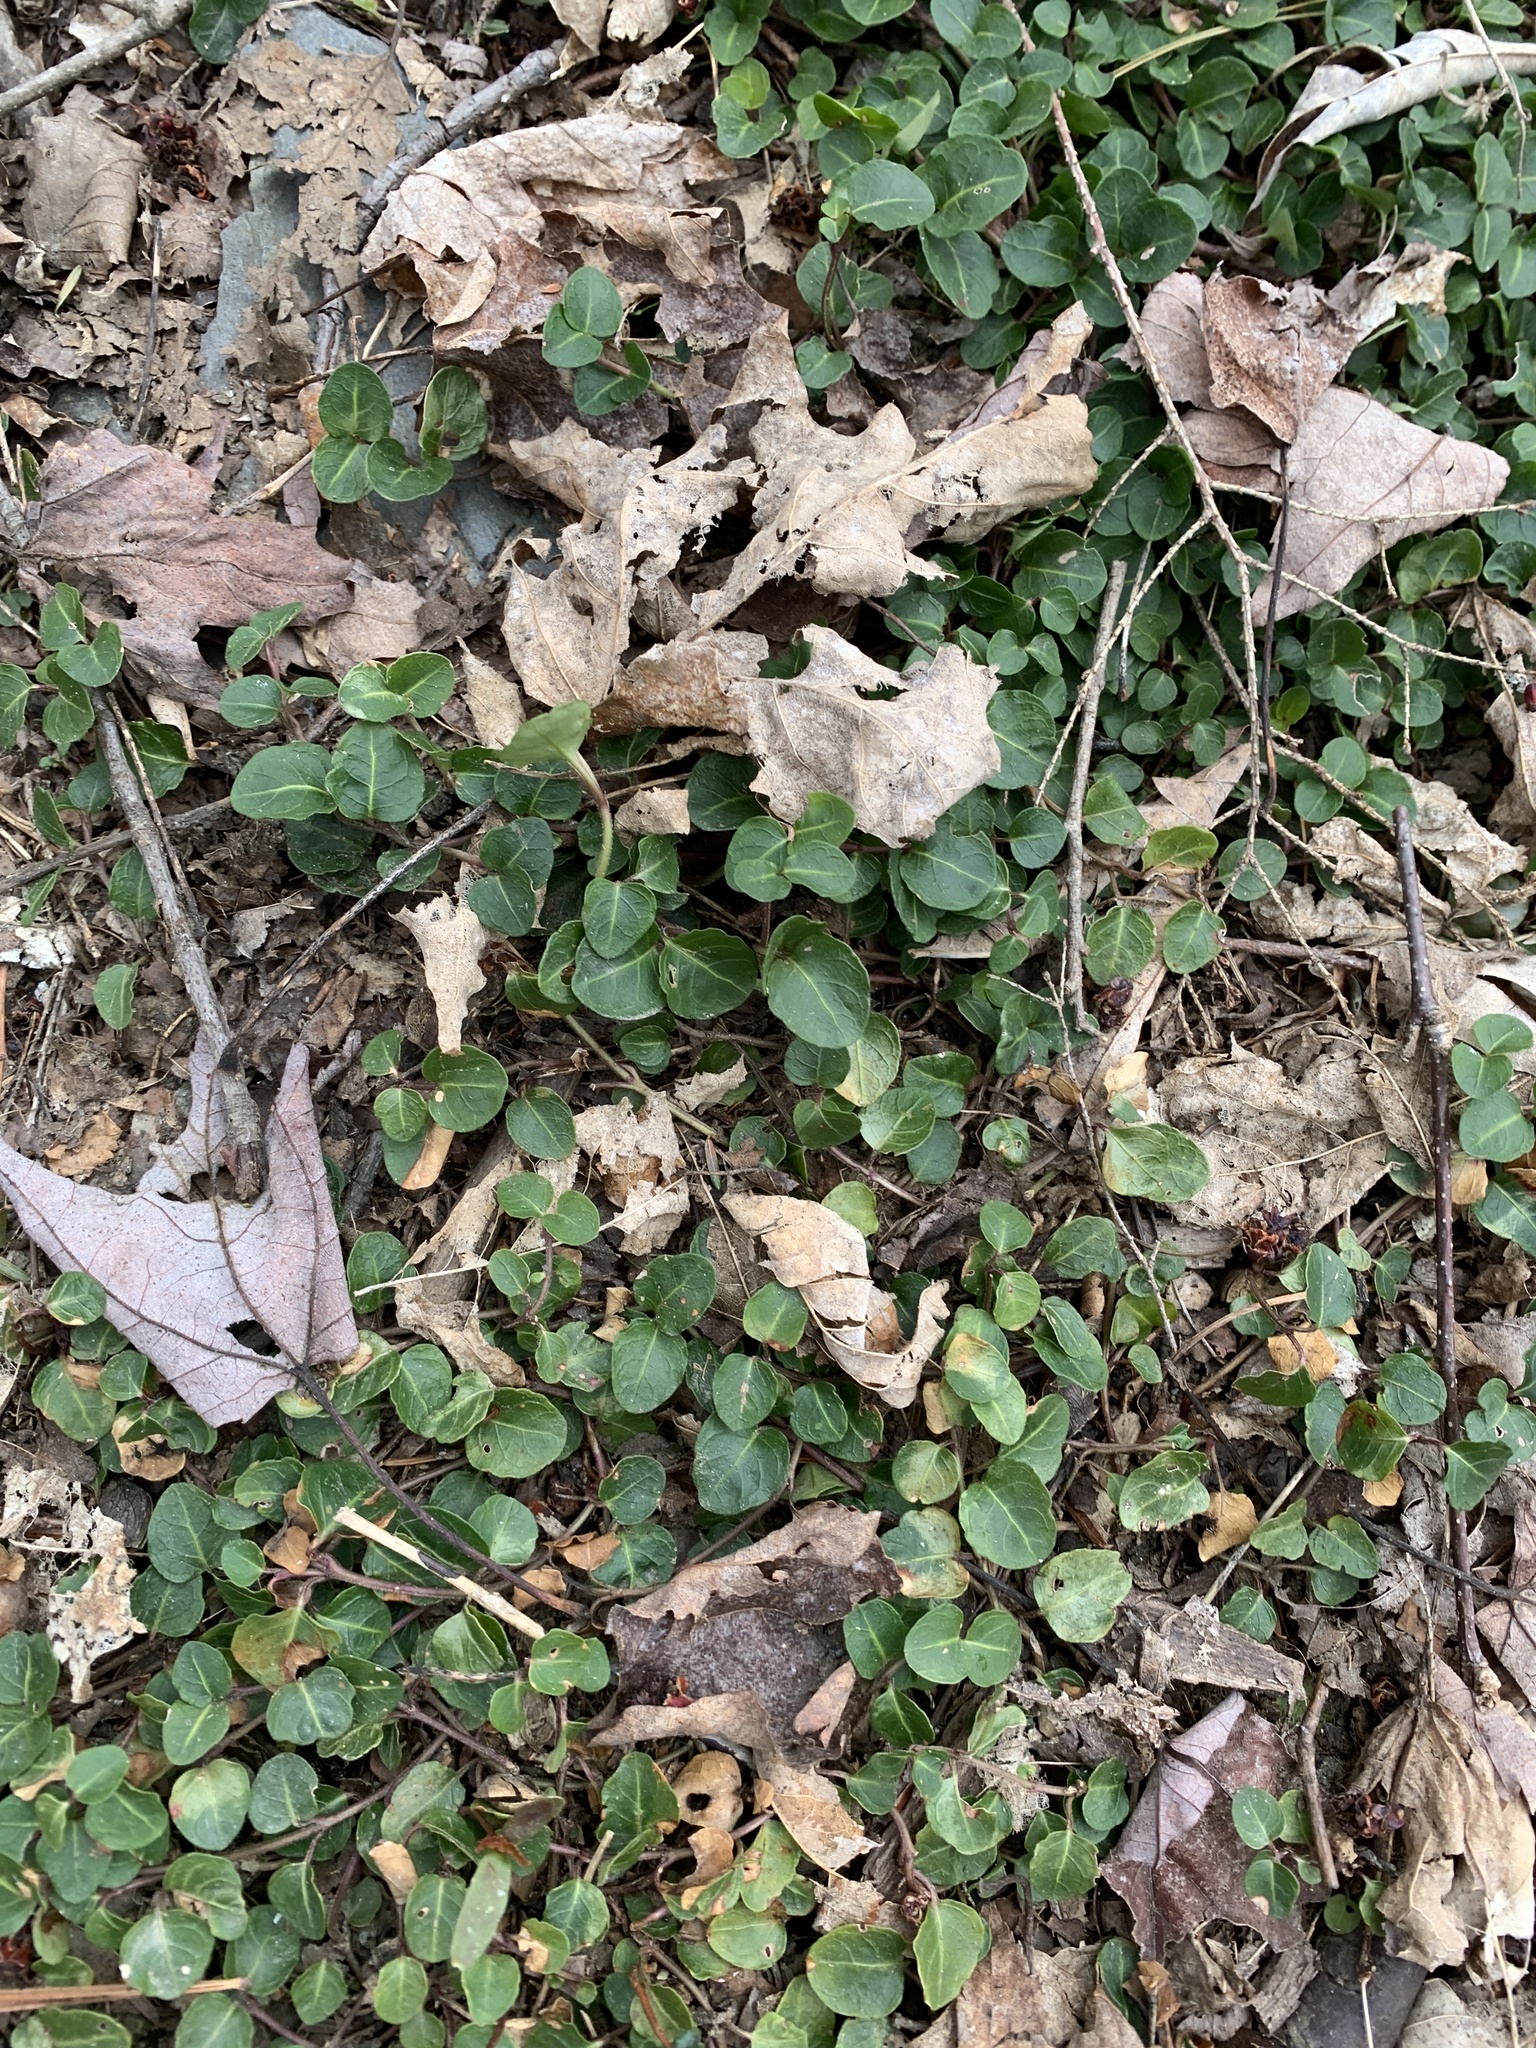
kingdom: Plantae
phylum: Tracheophyta
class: Magnoliopsida
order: Gentianales
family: Rubiaceae
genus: Mitchella
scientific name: Mitchella repens
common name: Partridge-berry
